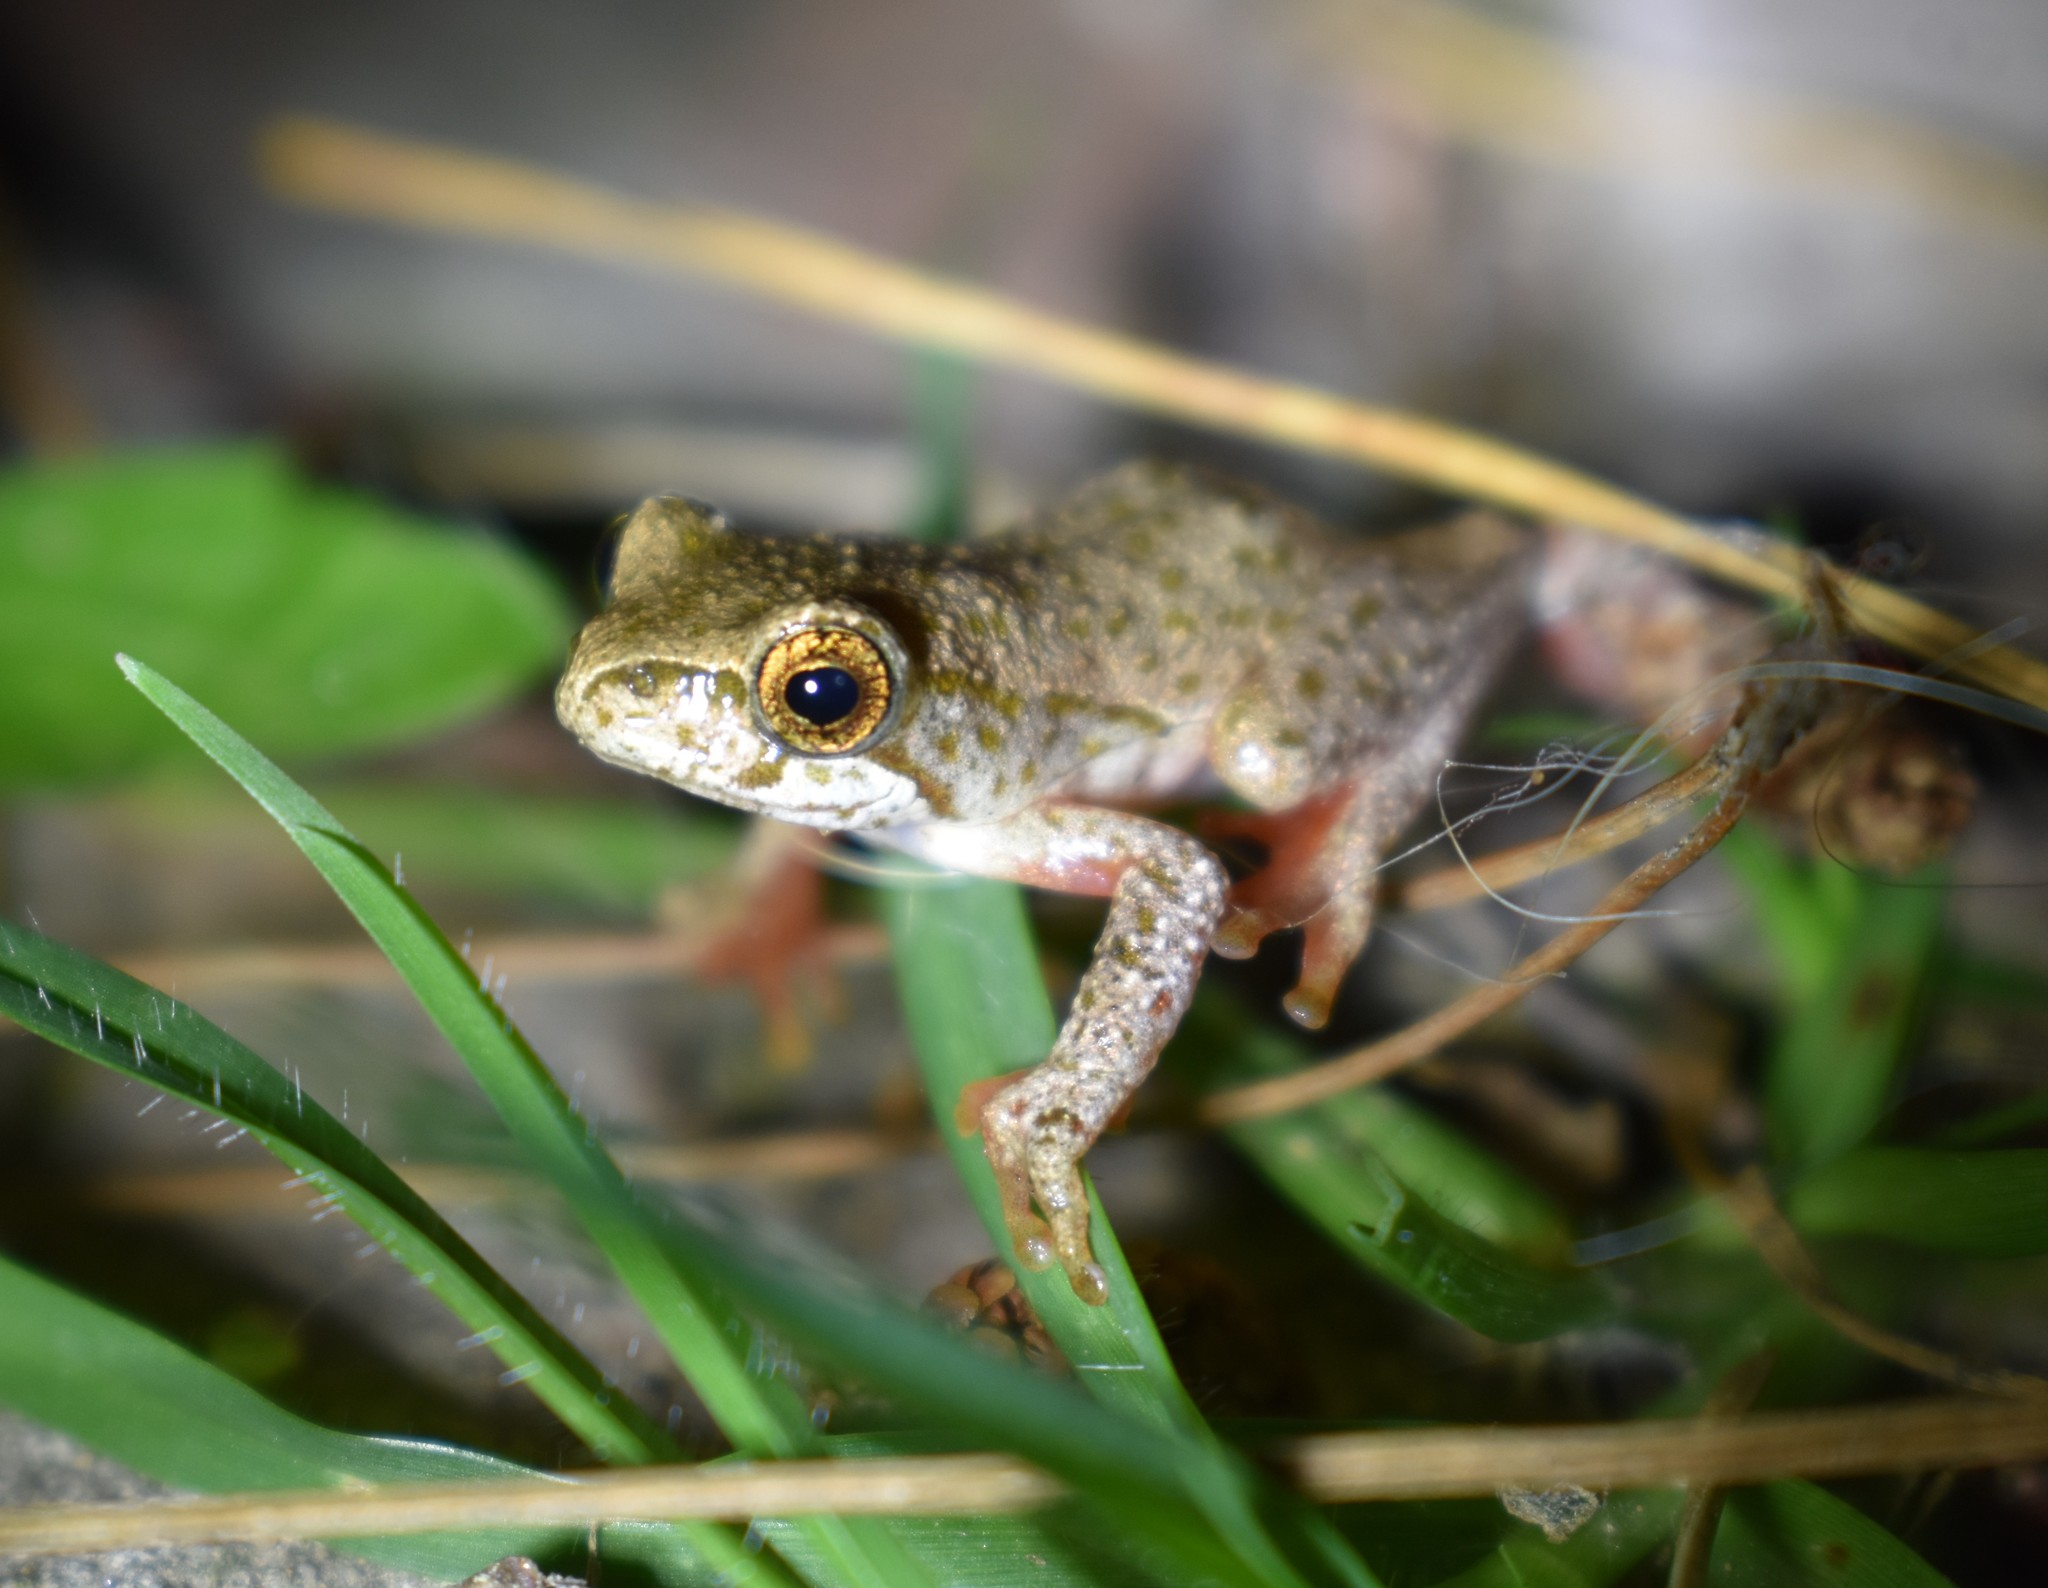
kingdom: Animalia
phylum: Chordata
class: Amphibia
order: Anura
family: Hyperoliidae
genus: Hyperolius
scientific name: Hyperolius marmoratus
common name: Painted reed frog
